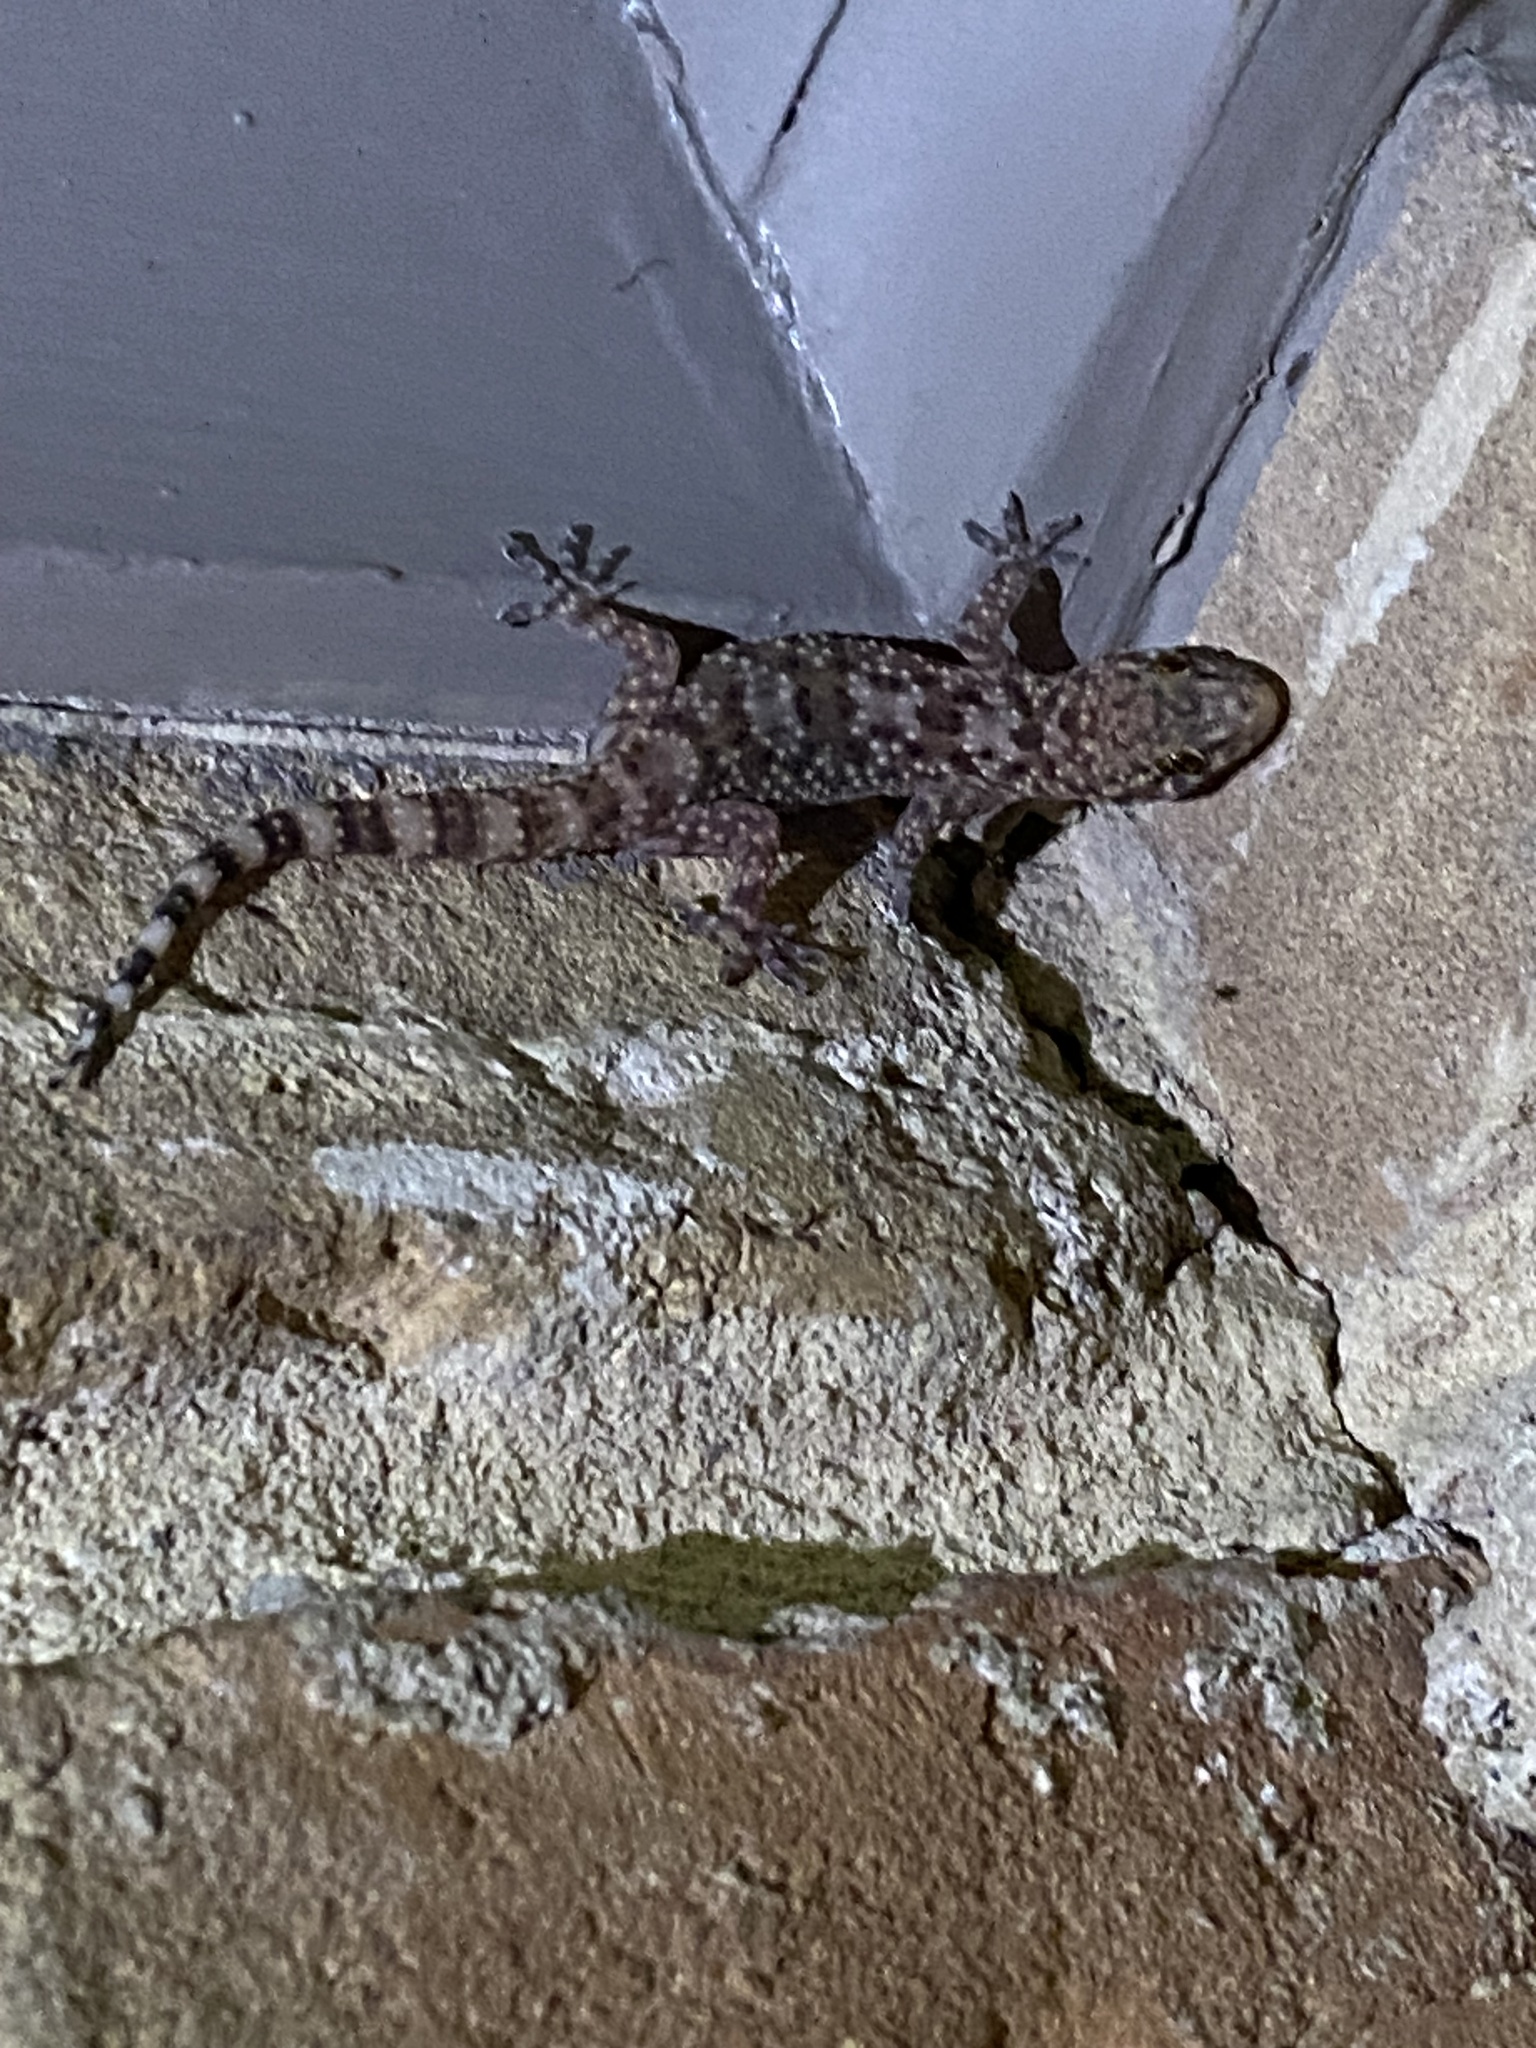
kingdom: Animalia
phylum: Chordata
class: Squamata
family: Gekkonidae
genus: Hemidactylus
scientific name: Hemidactylus turcicus
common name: Turkish gecko
